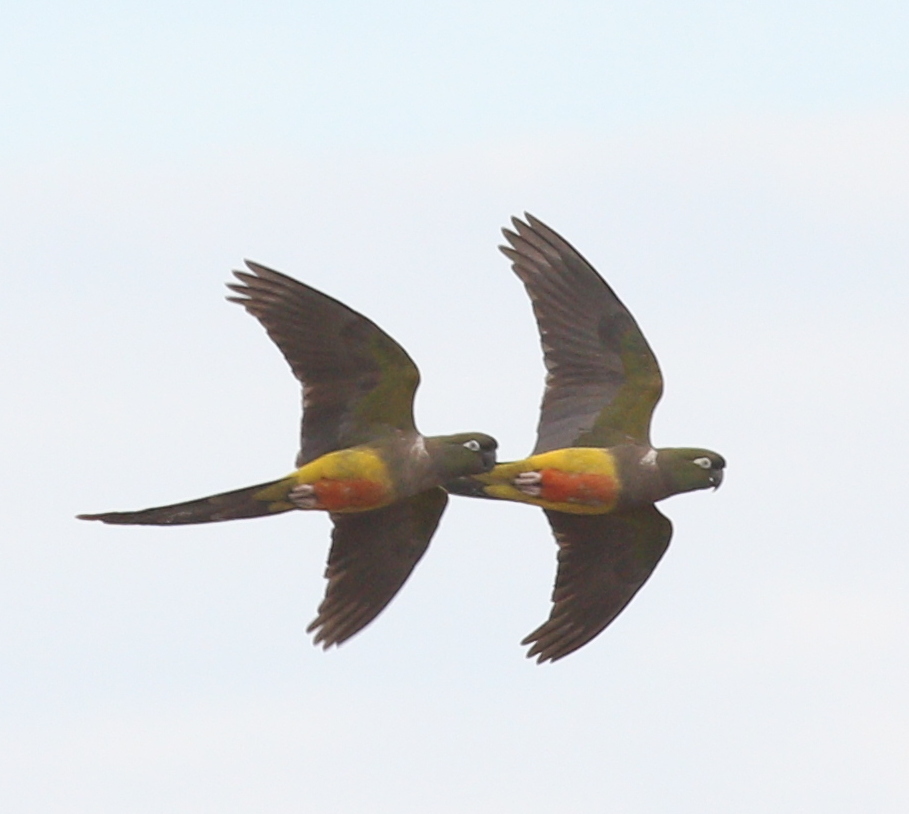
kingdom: Animalia
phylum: Chordata
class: Aves
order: Psittaciformes
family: Psittacidae
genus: Cyanoliseus
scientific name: Cyanoliseus patagonus
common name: Burrowing parrot
